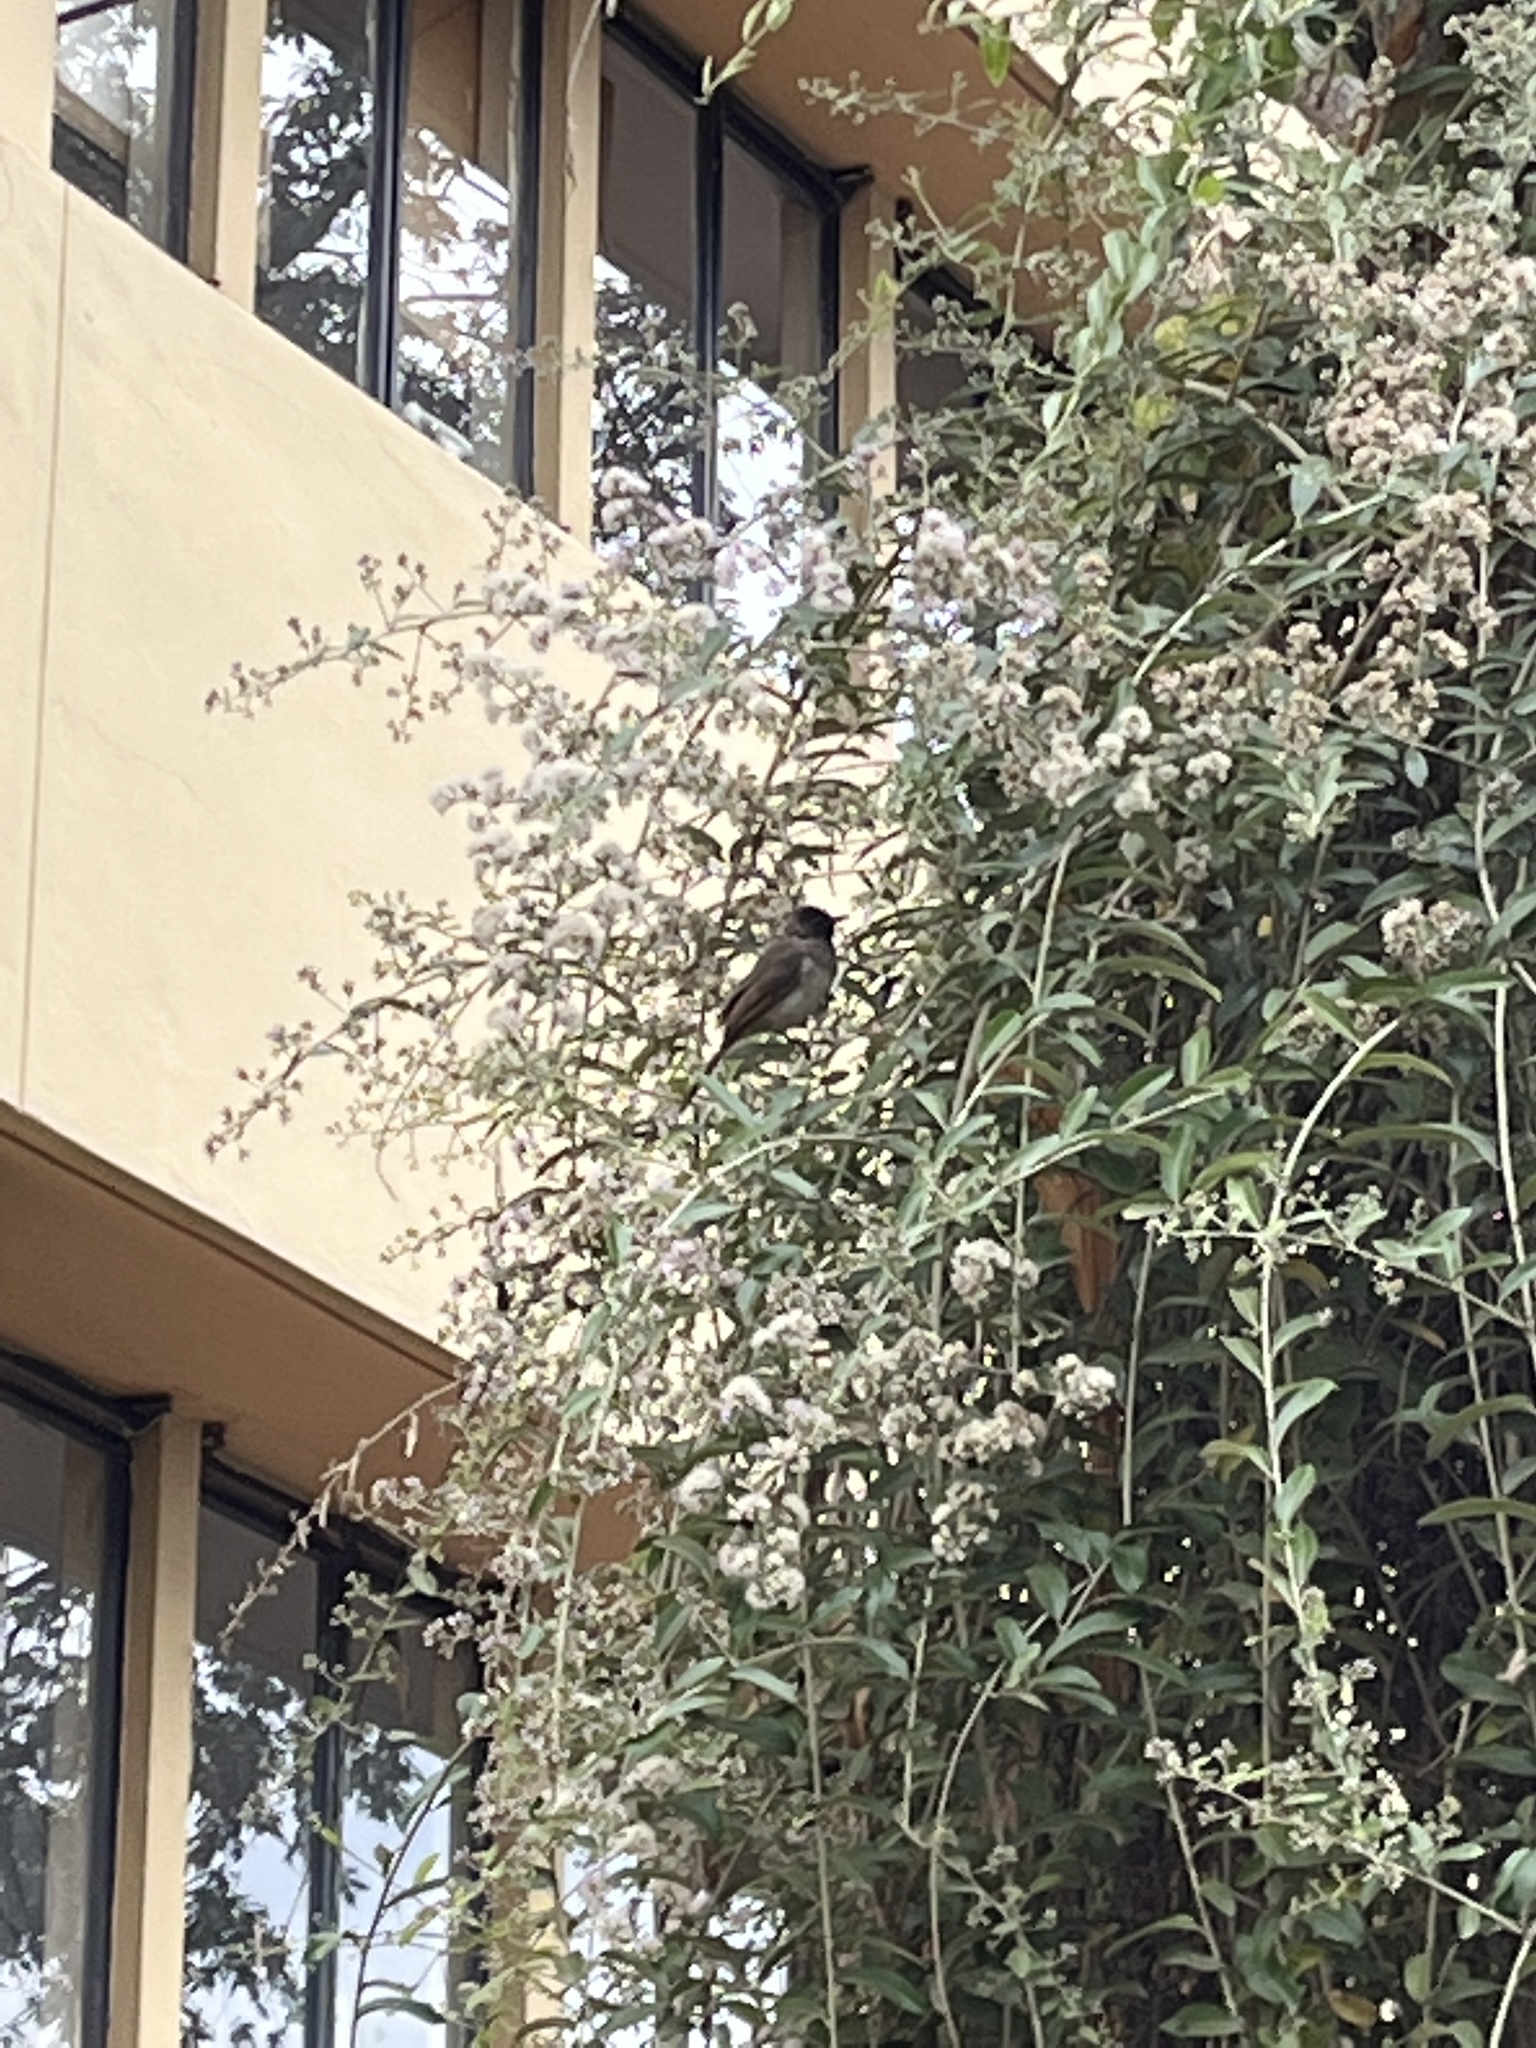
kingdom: Animalia
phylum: Chordata
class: Aves
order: Passeriformes
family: Pycnonotidae
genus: Pycnonotus
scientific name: Pycnonotus barbatus
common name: Common bulbul
